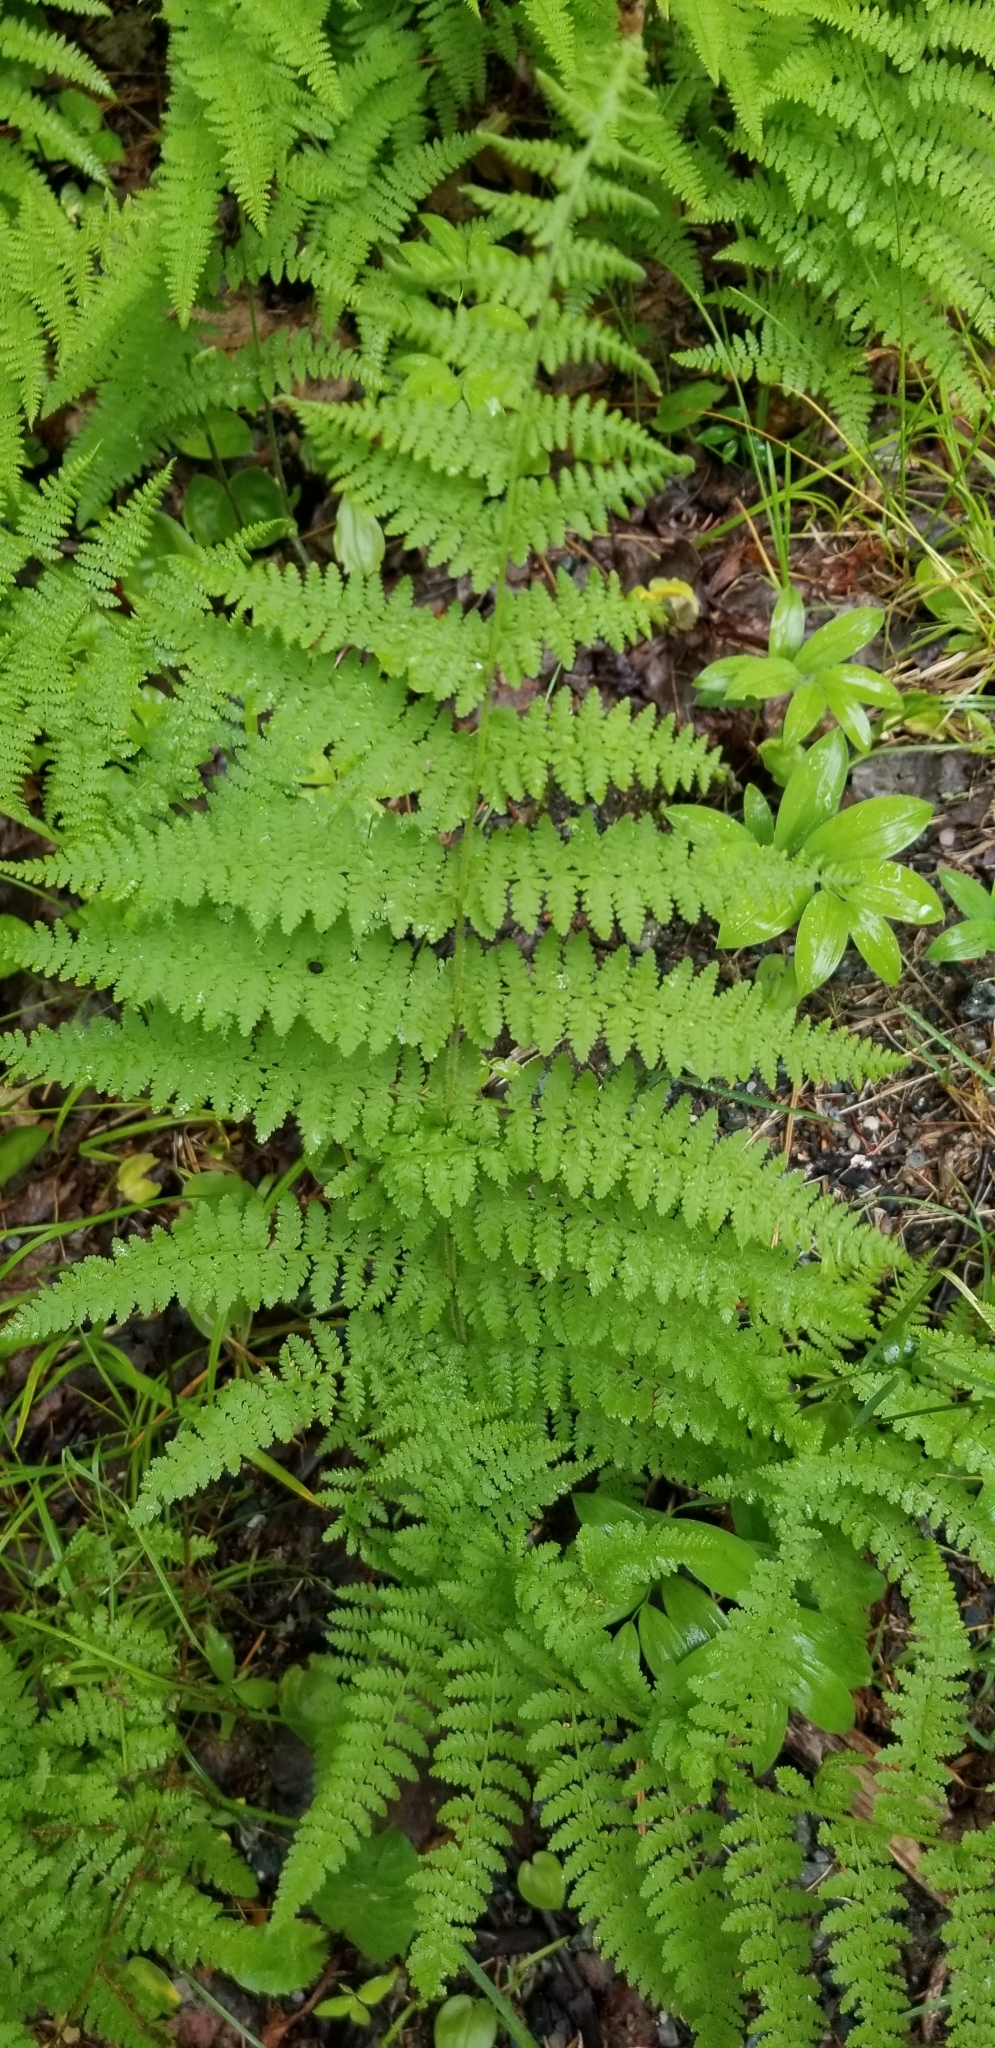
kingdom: Plantae
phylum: Tracheophyta
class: Polypodiopsida
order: Polypodiales
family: Dennstaedtiaceae
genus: Sitobolium
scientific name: Sitobolium punctilobum
